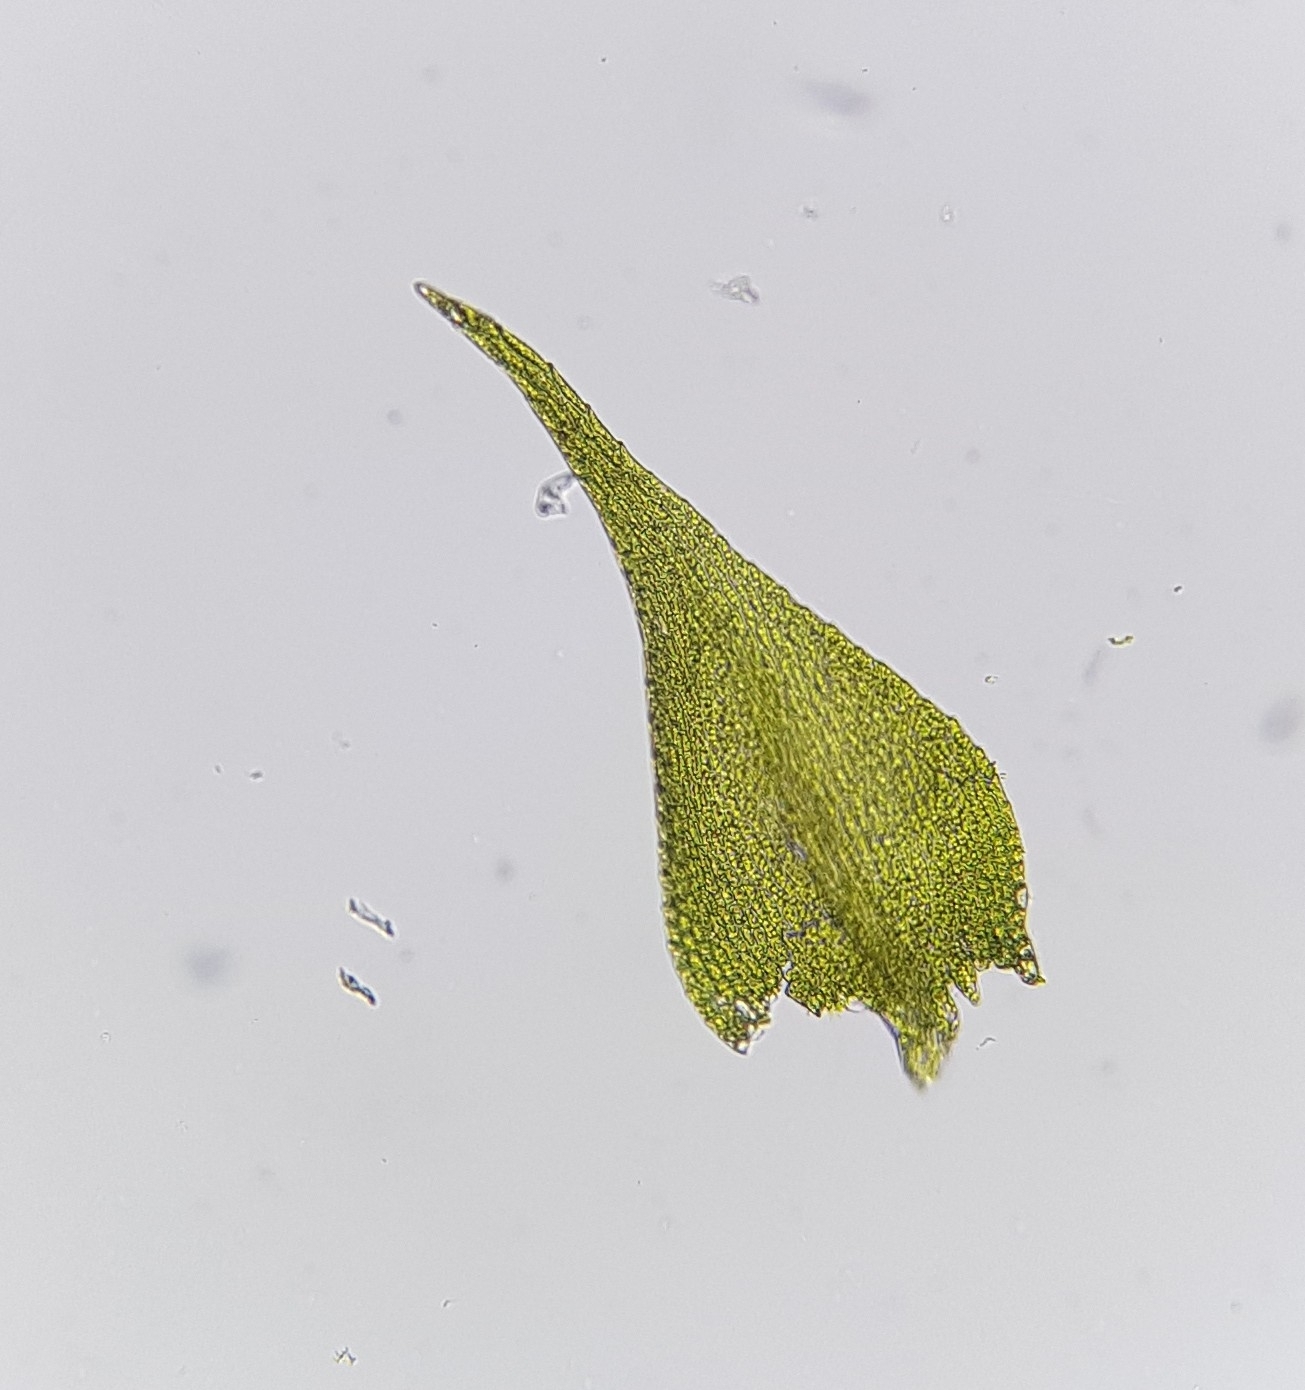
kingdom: Plantae
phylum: Bryophyta
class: Bryopsida
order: Hypnales
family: Amblystegiaceae
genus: Amblystegium
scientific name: Amblystegium serpens
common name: Jurkatzka's feather moss
